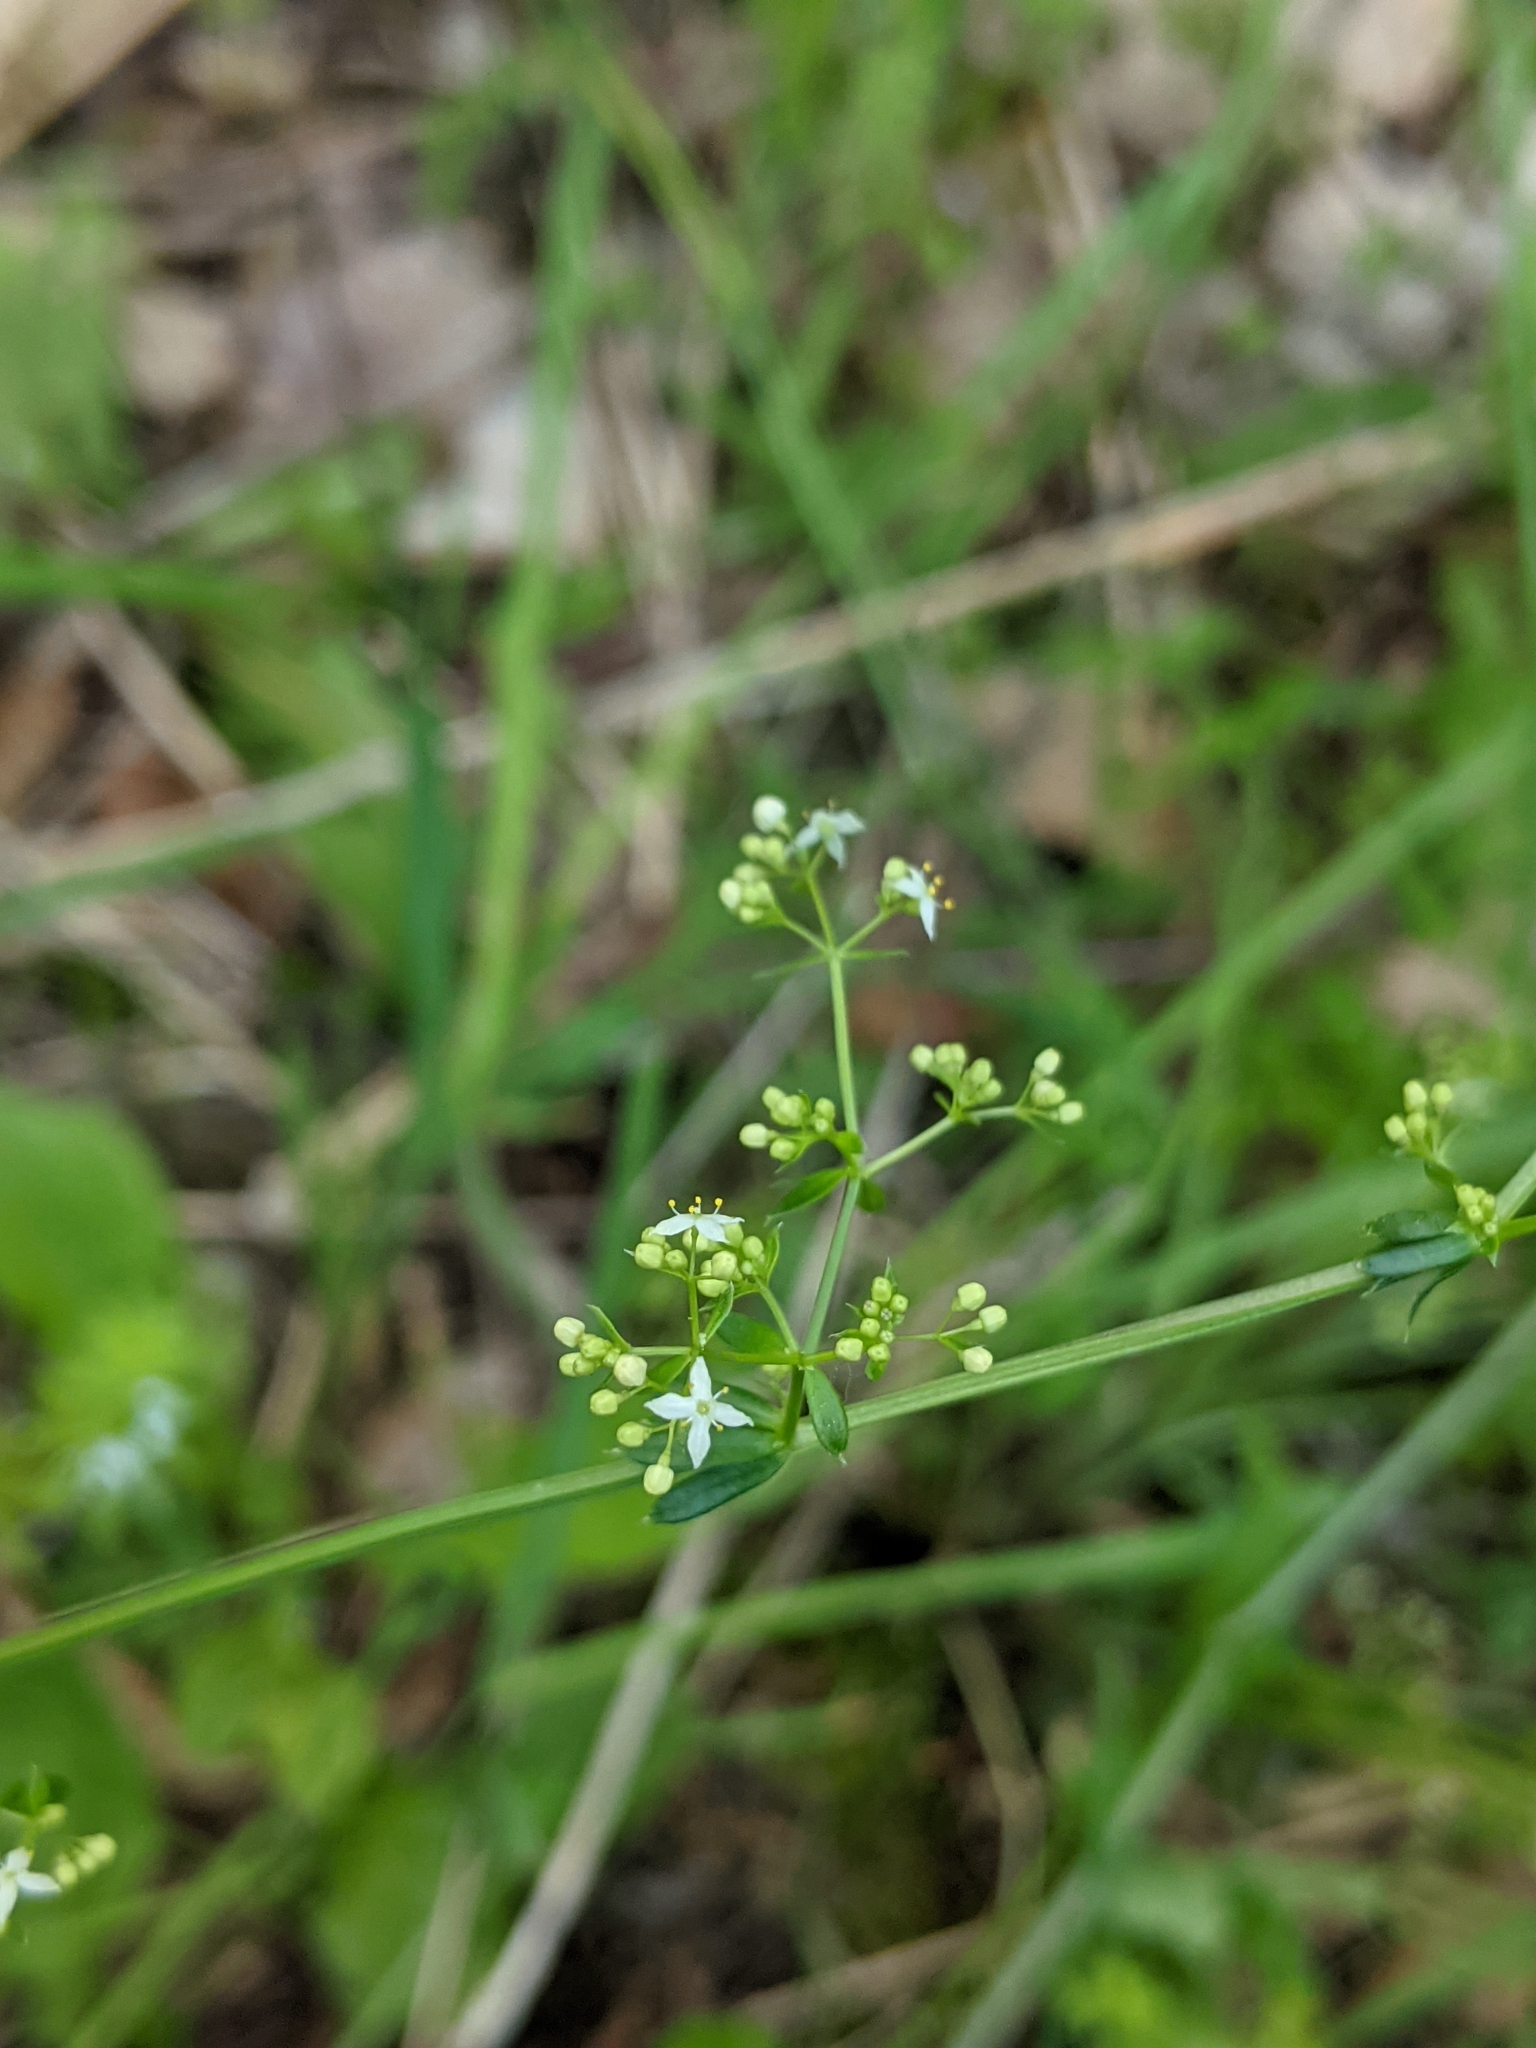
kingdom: Plantae
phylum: Tracheophyta
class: Magnoliopsida
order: Gentianales
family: Rubiaceae
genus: Galium
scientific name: Galium album
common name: White bedstraw
